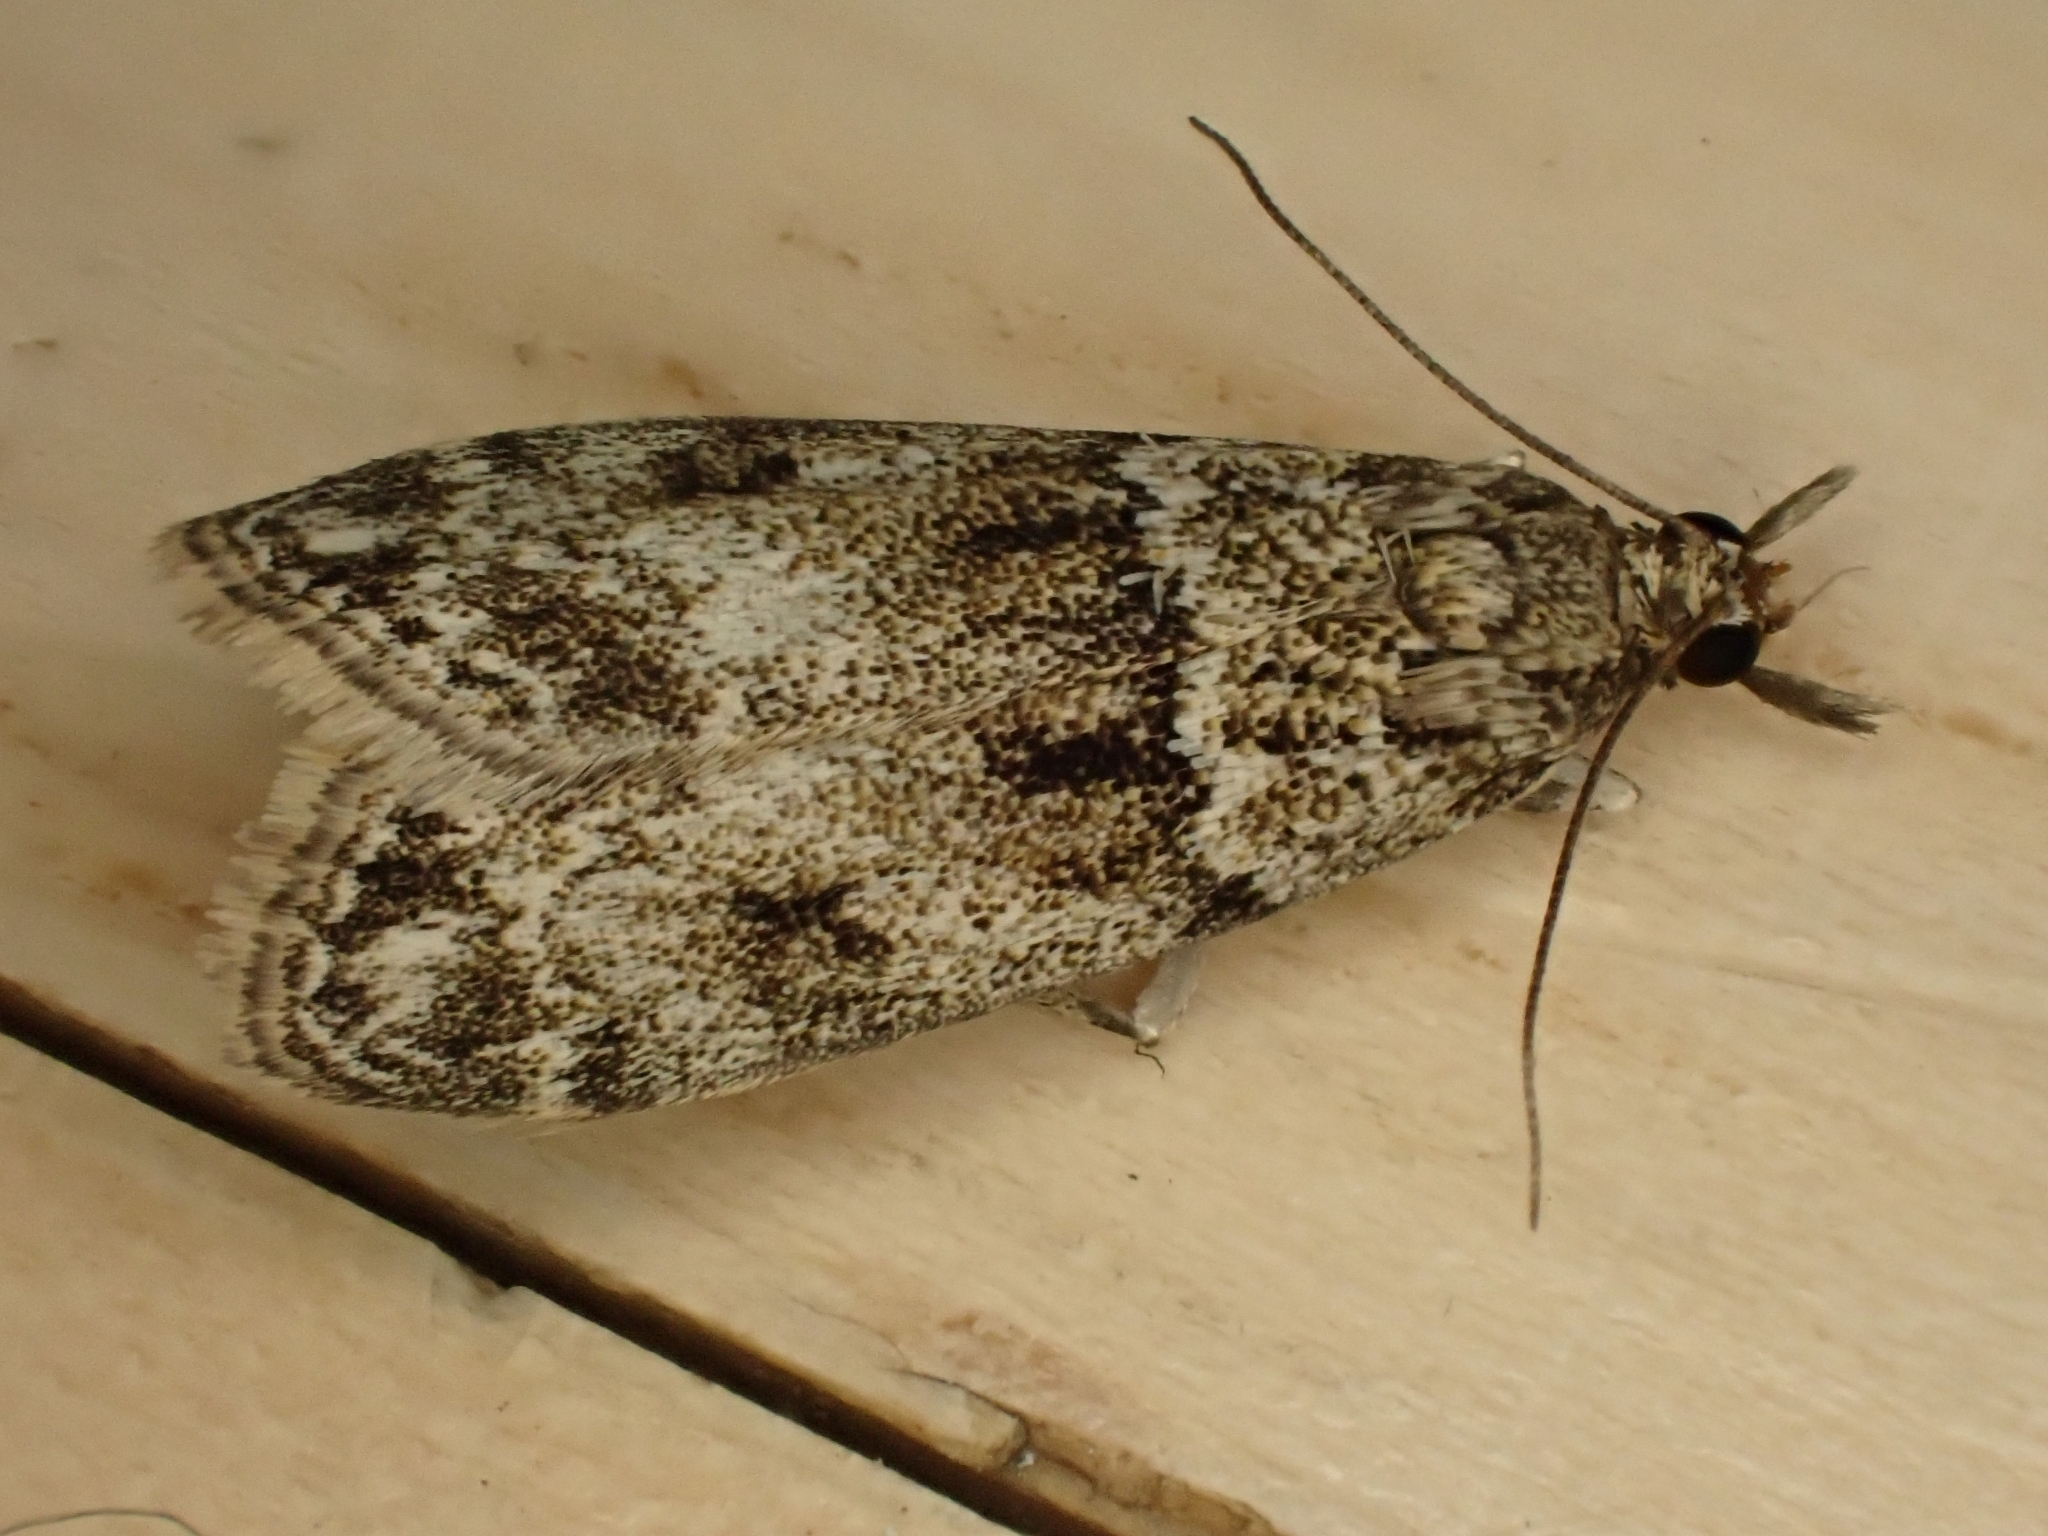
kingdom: Animalia
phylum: Arthropoda
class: Insecta
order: Lepidoptera
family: Crambidae
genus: Eudonia
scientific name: Eudonia lacustrata
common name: Little grey
